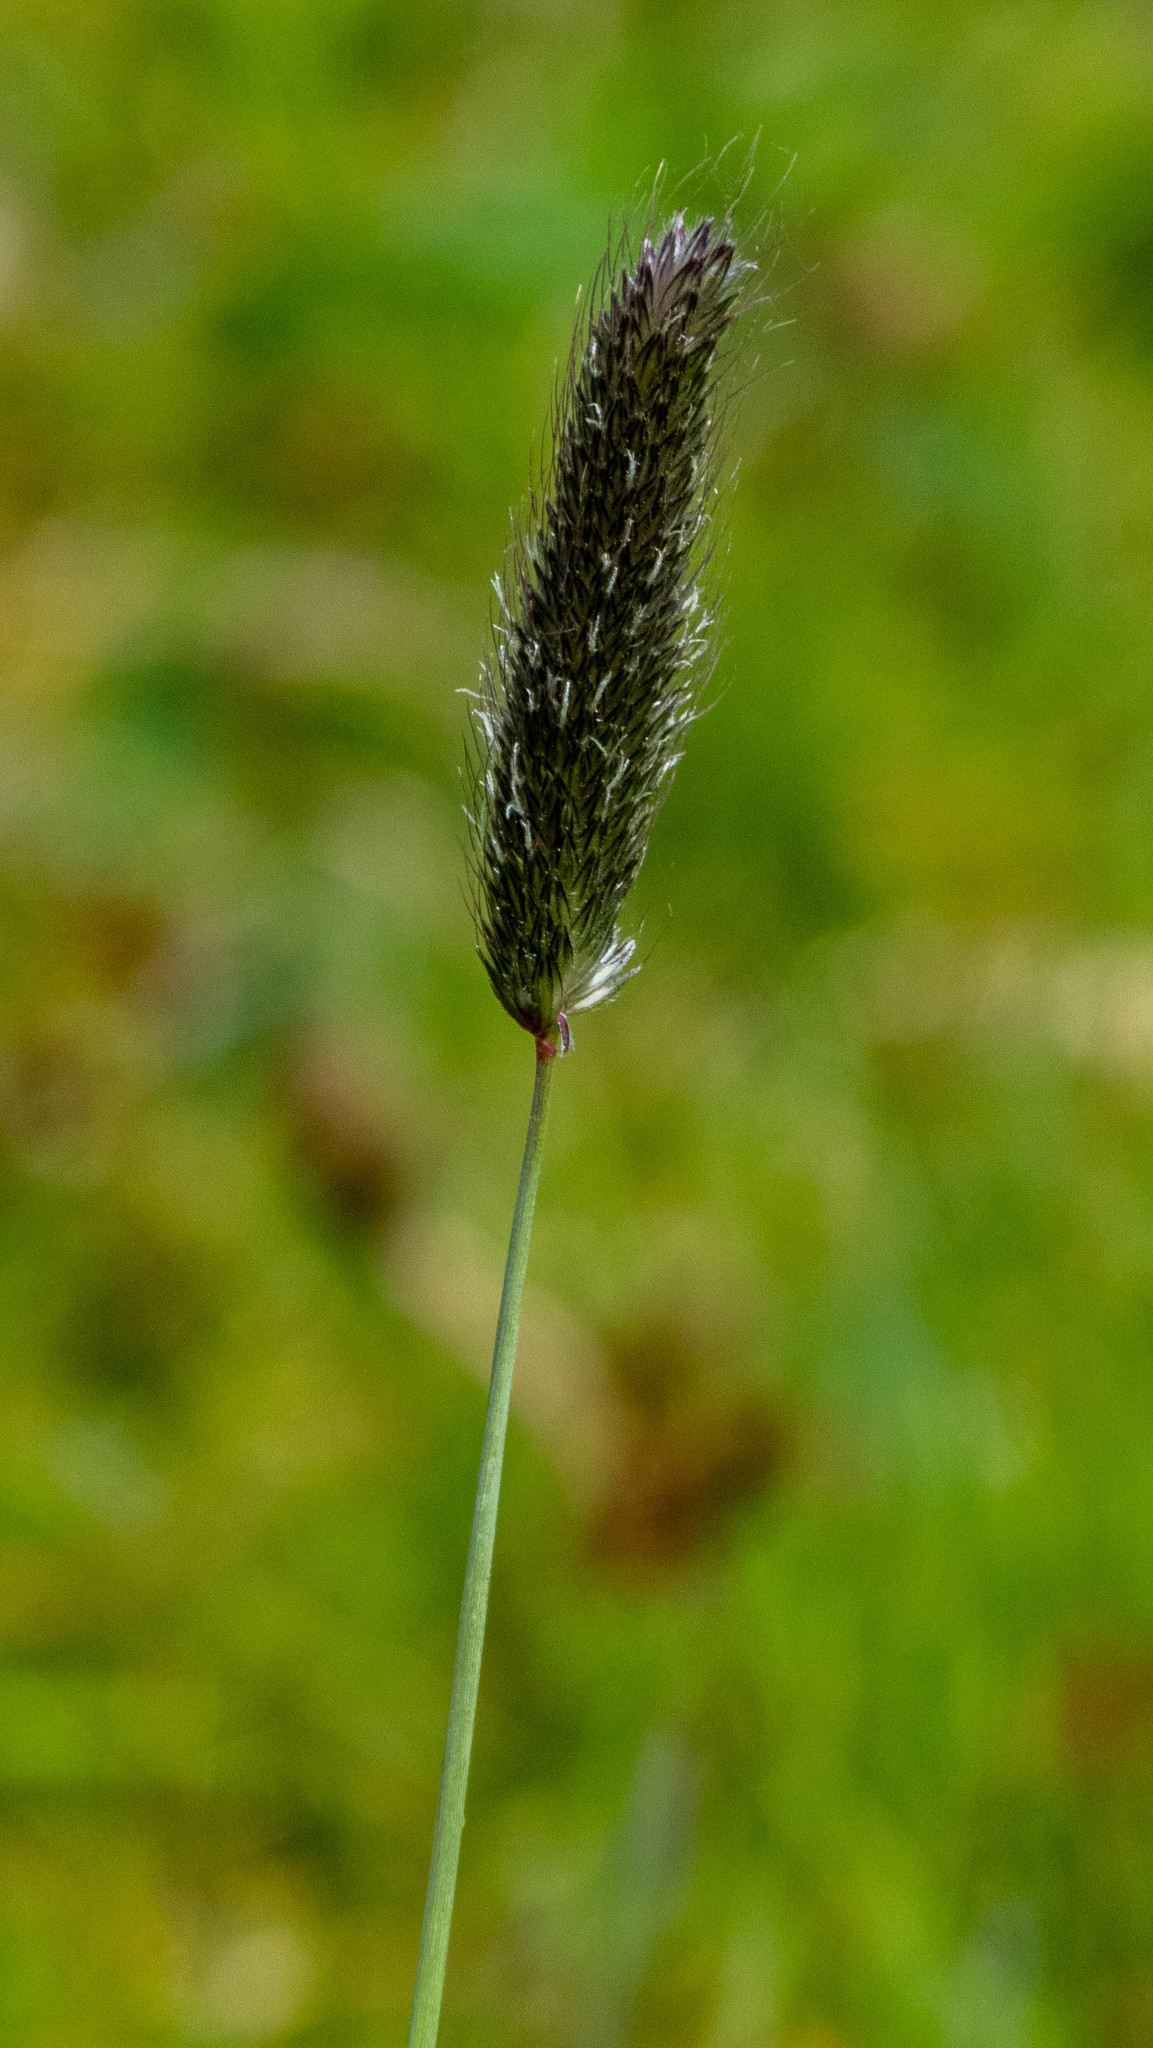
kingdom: Plantae
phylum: Tracheophyta
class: Liliopsida
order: Poales
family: Poaceae
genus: Alopecurus
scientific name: Alopecurus pratensis
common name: Meadow foxtail
